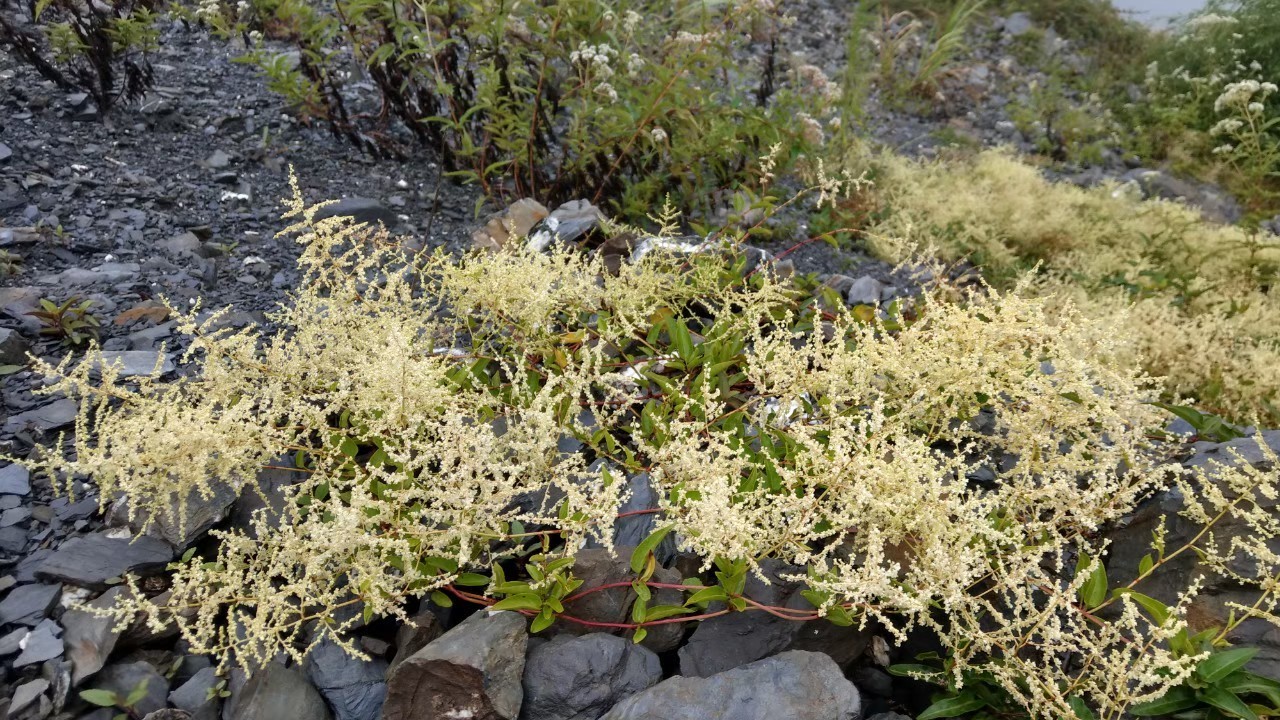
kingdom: Plantae
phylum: Tracheophyta
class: Magnoliopsida
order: Caryophyllales
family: Polygonaceae
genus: Reynoutria
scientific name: Reynoutria multiflora
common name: Chinese fleeceflower
